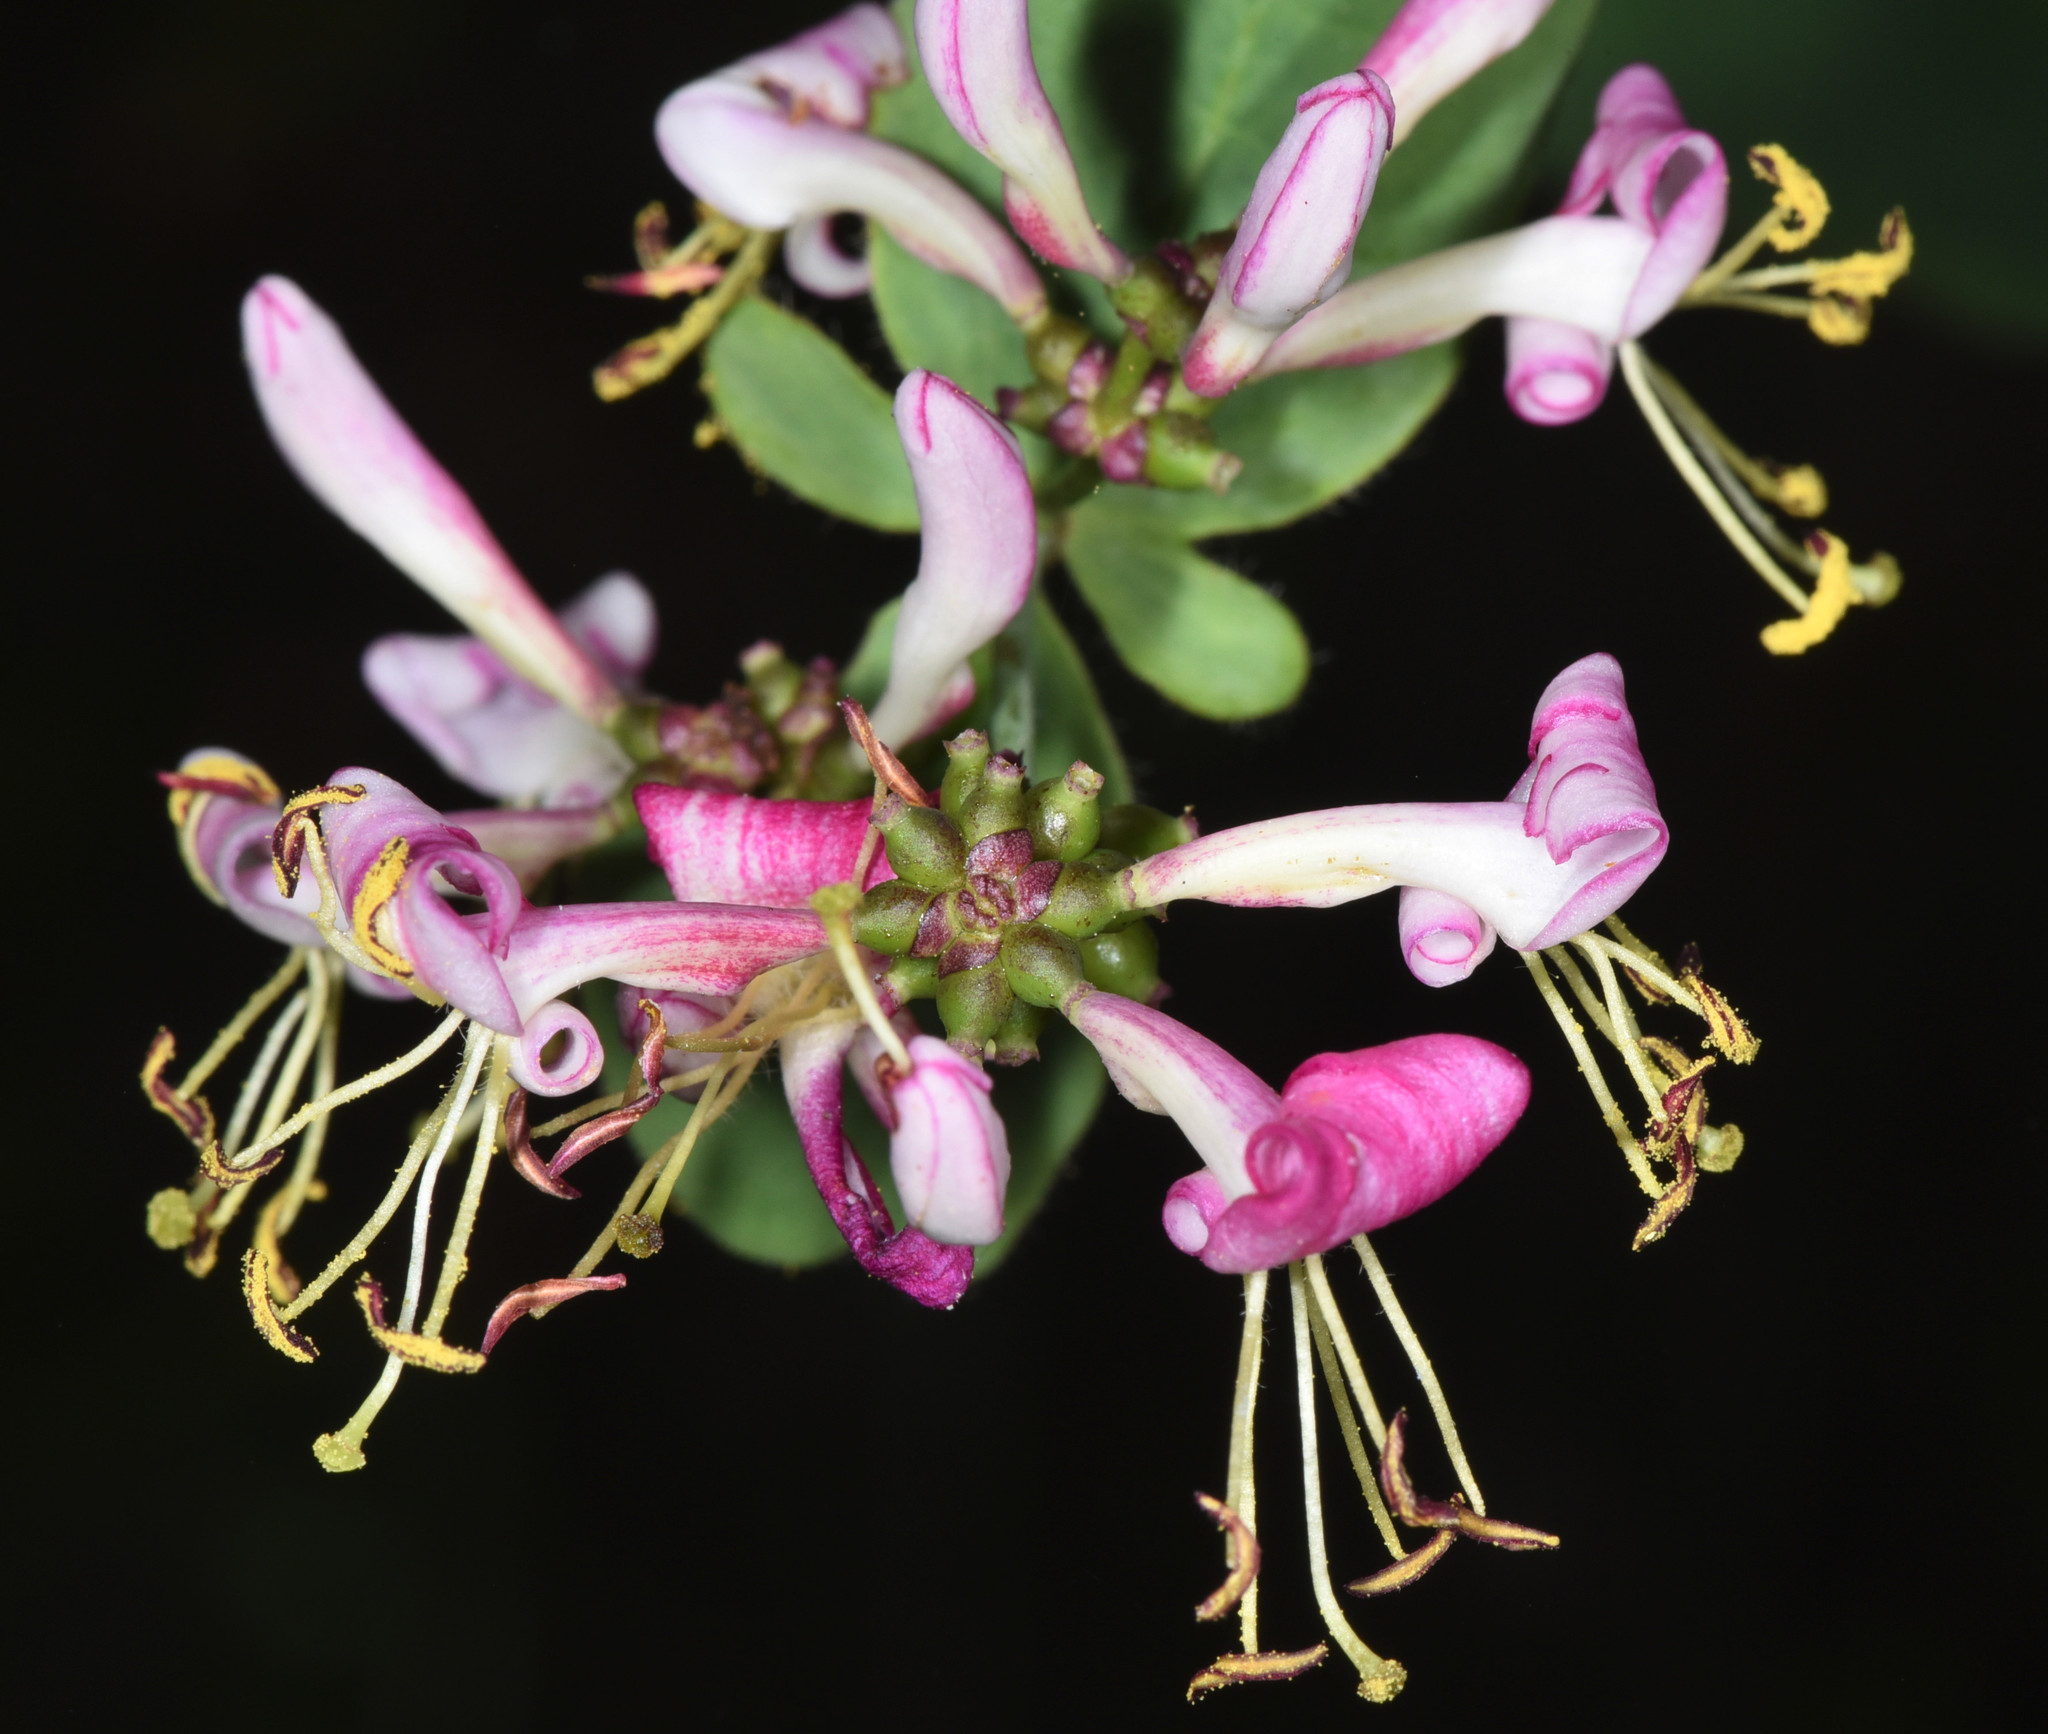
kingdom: Plantae
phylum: Tracheophyta
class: Magnoliopsida
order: Dipsacales
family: Caprifoliaceae
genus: Lonicera
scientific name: Lonicera hispidula
